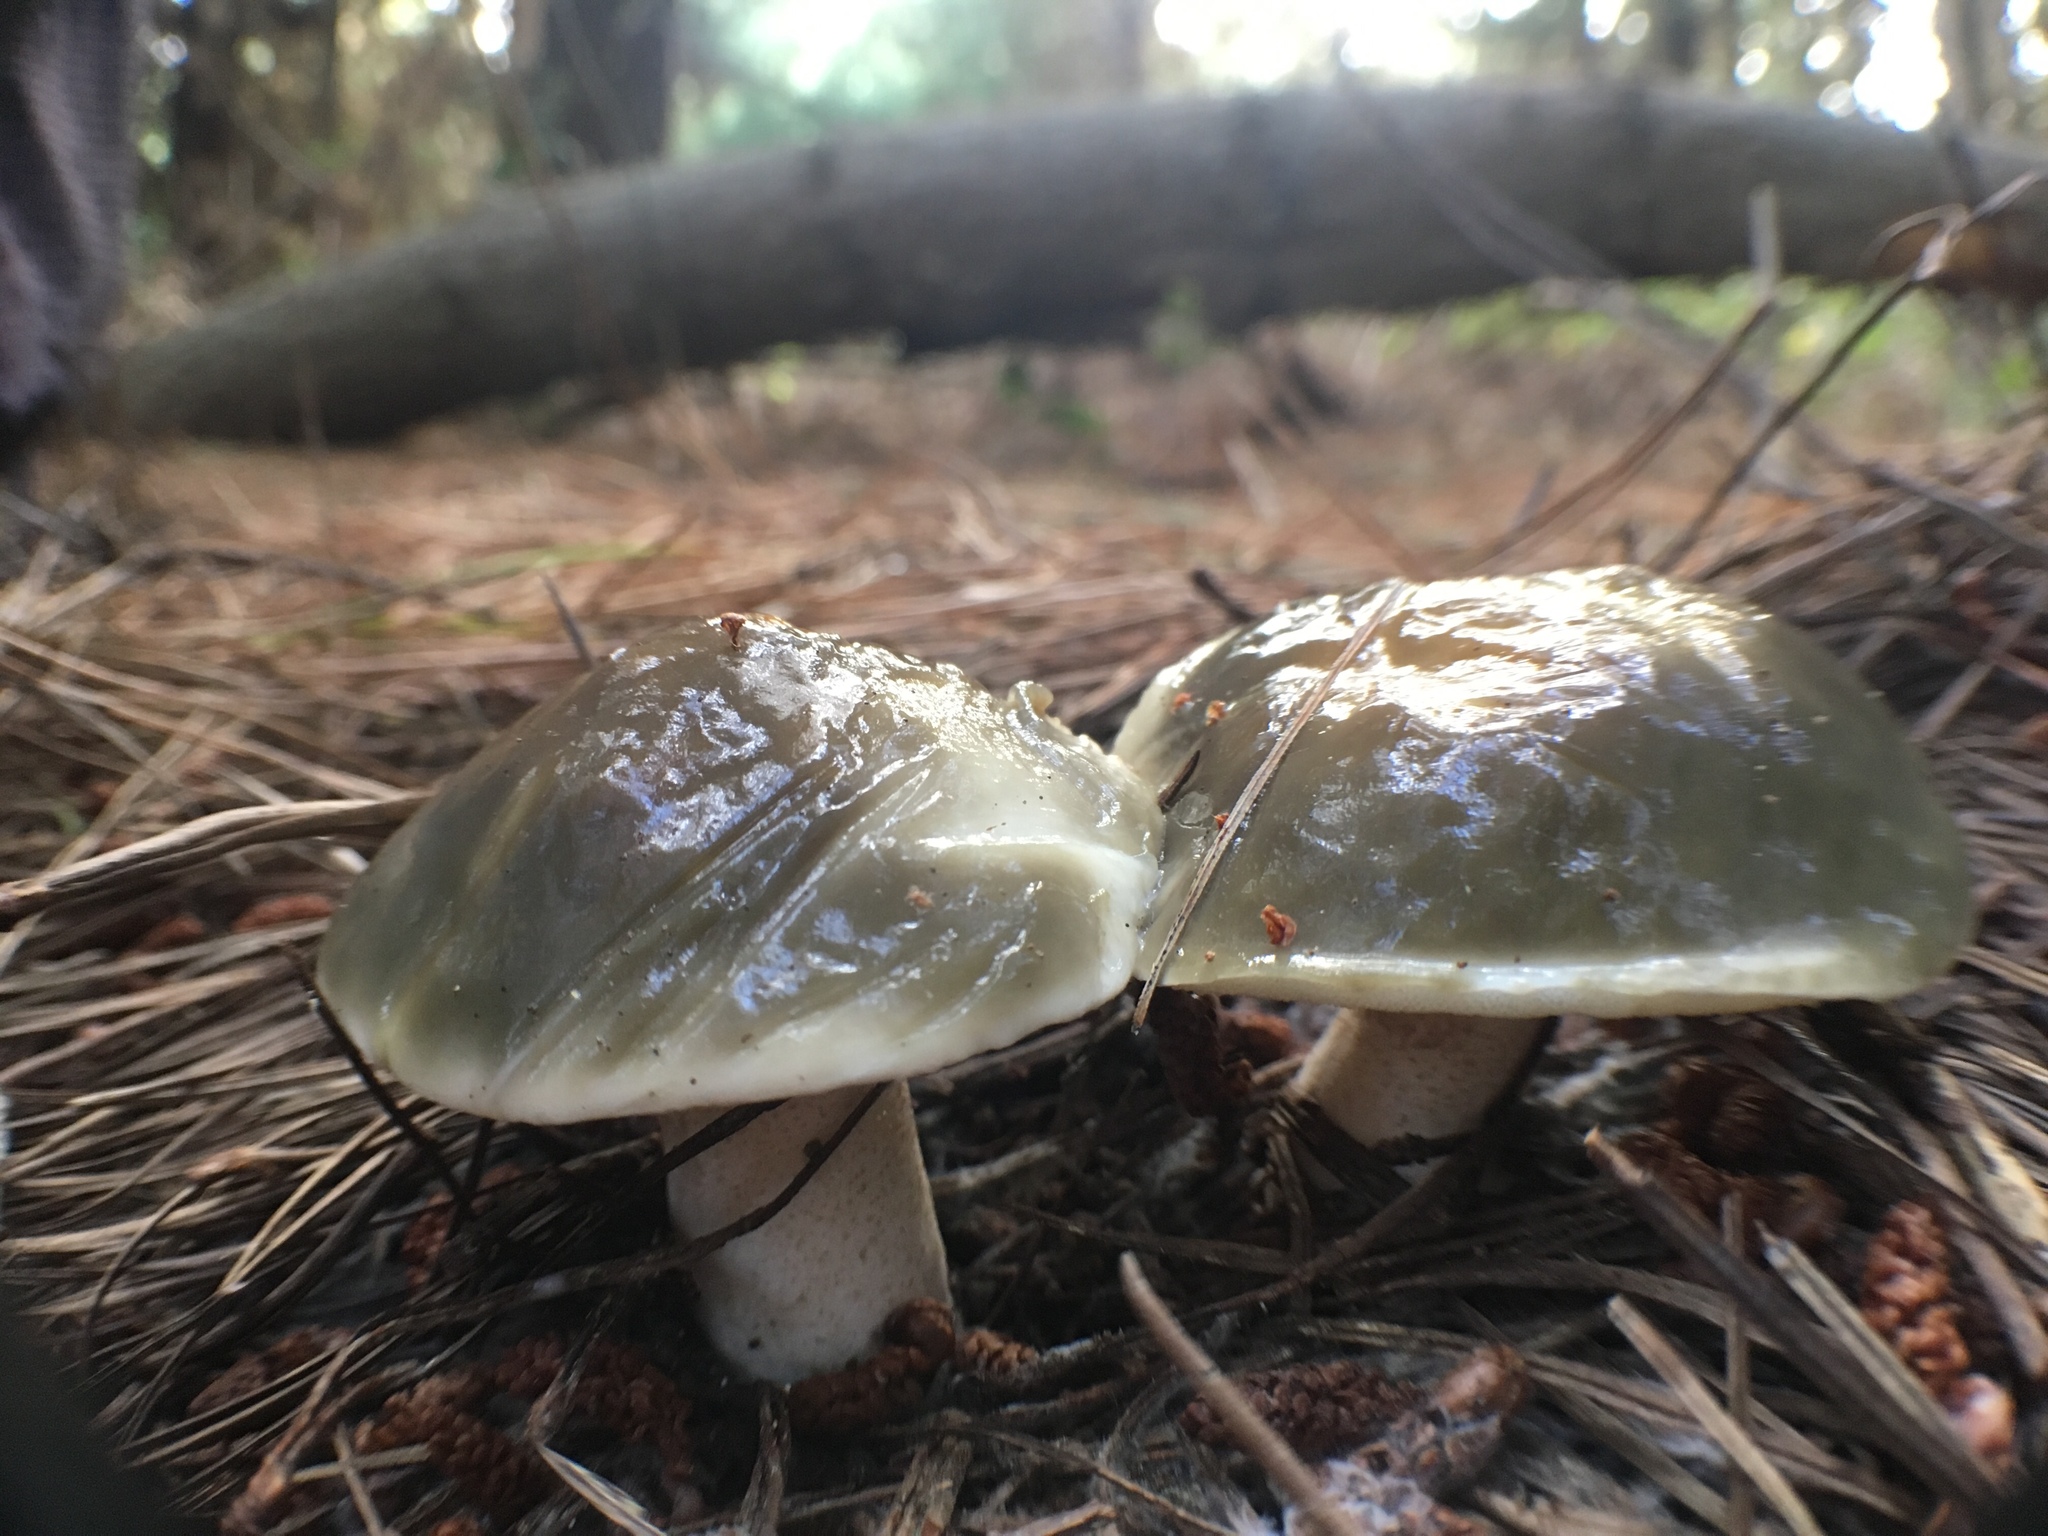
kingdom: Fungi
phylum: Basidiomycota
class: Agaricomycetes
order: Boletales
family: Suillaceae
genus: Suillus
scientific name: Suillus pungens
